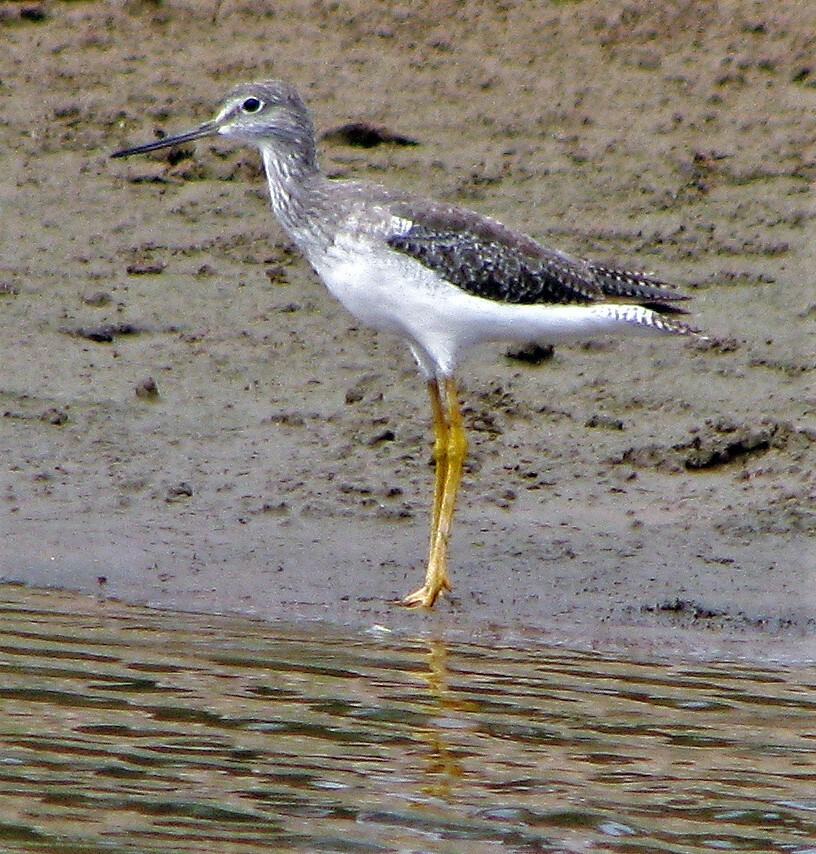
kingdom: Animalia
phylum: Chordata
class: Aves
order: Charadriiformes
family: Scolopacidae
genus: Tringa
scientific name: Tringa melanoleuca
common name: Greater yellowlegs
